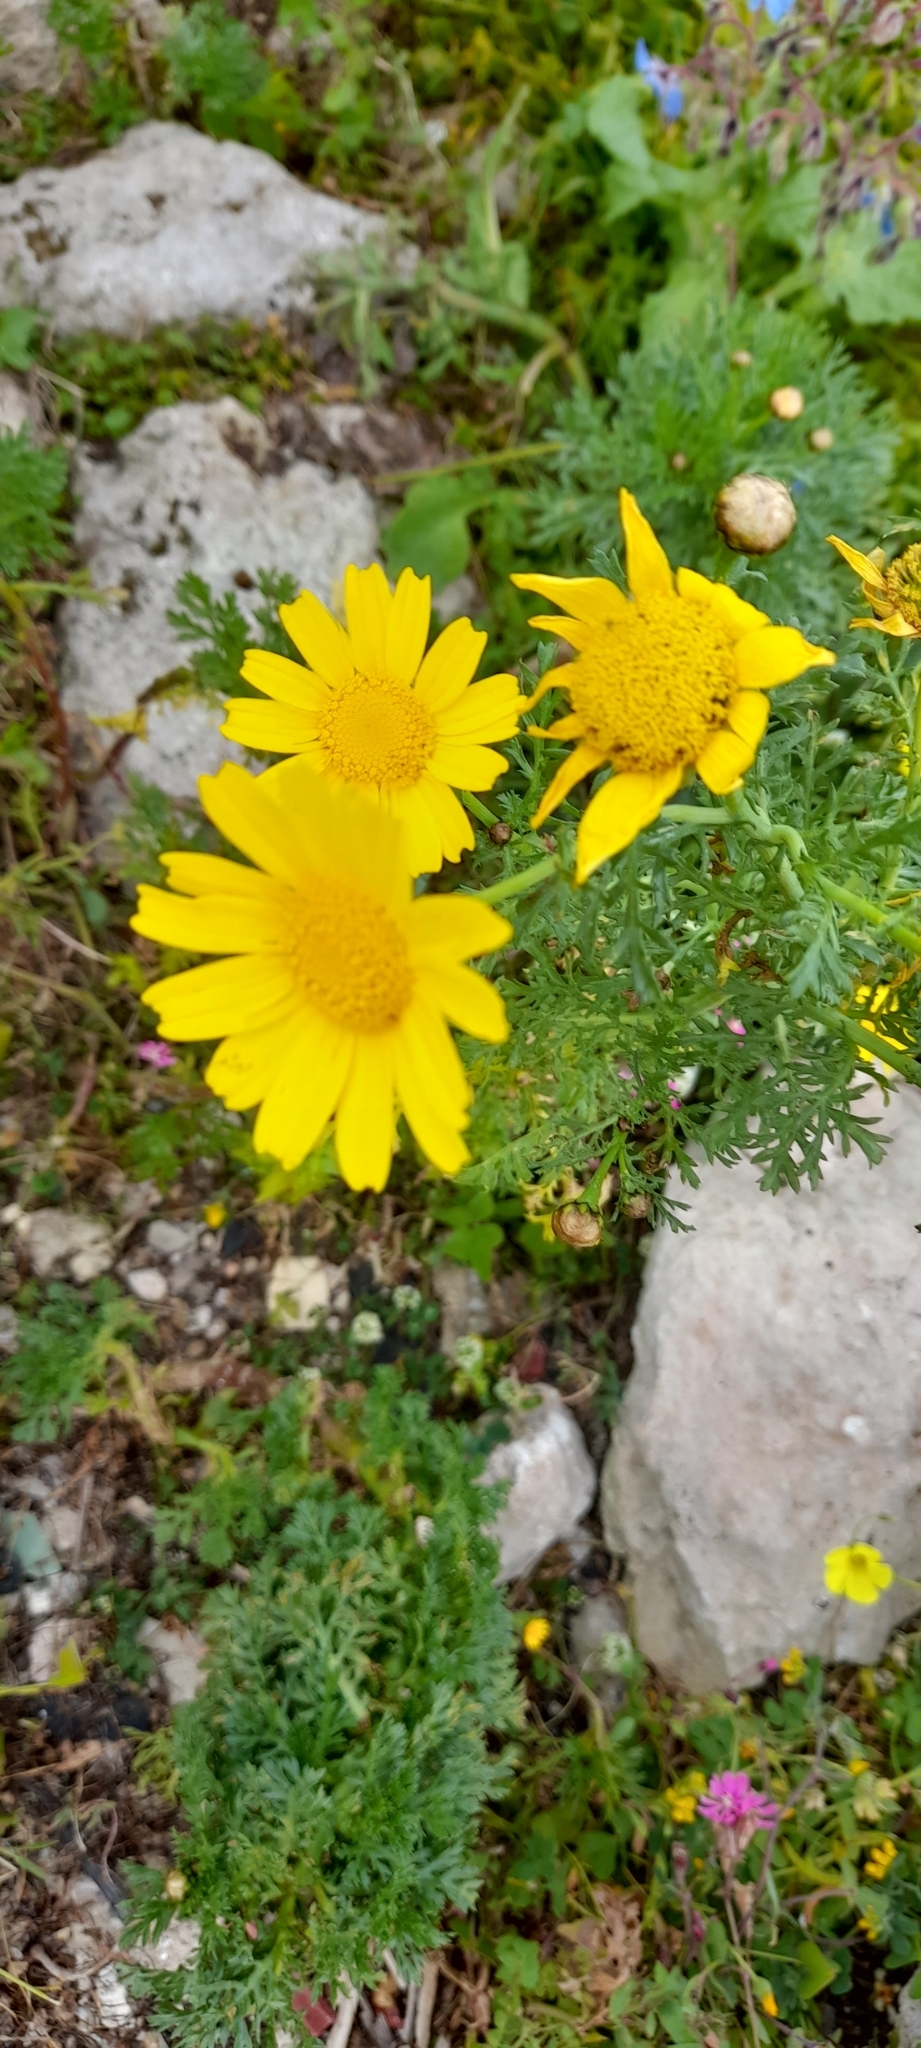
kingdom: Plantae
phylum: Tracheophyta
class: Magnoliopsida
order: Asterales
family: Asteraceae
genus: Glebionis
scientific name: Glebionis coronaria
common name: Crowndaisy
